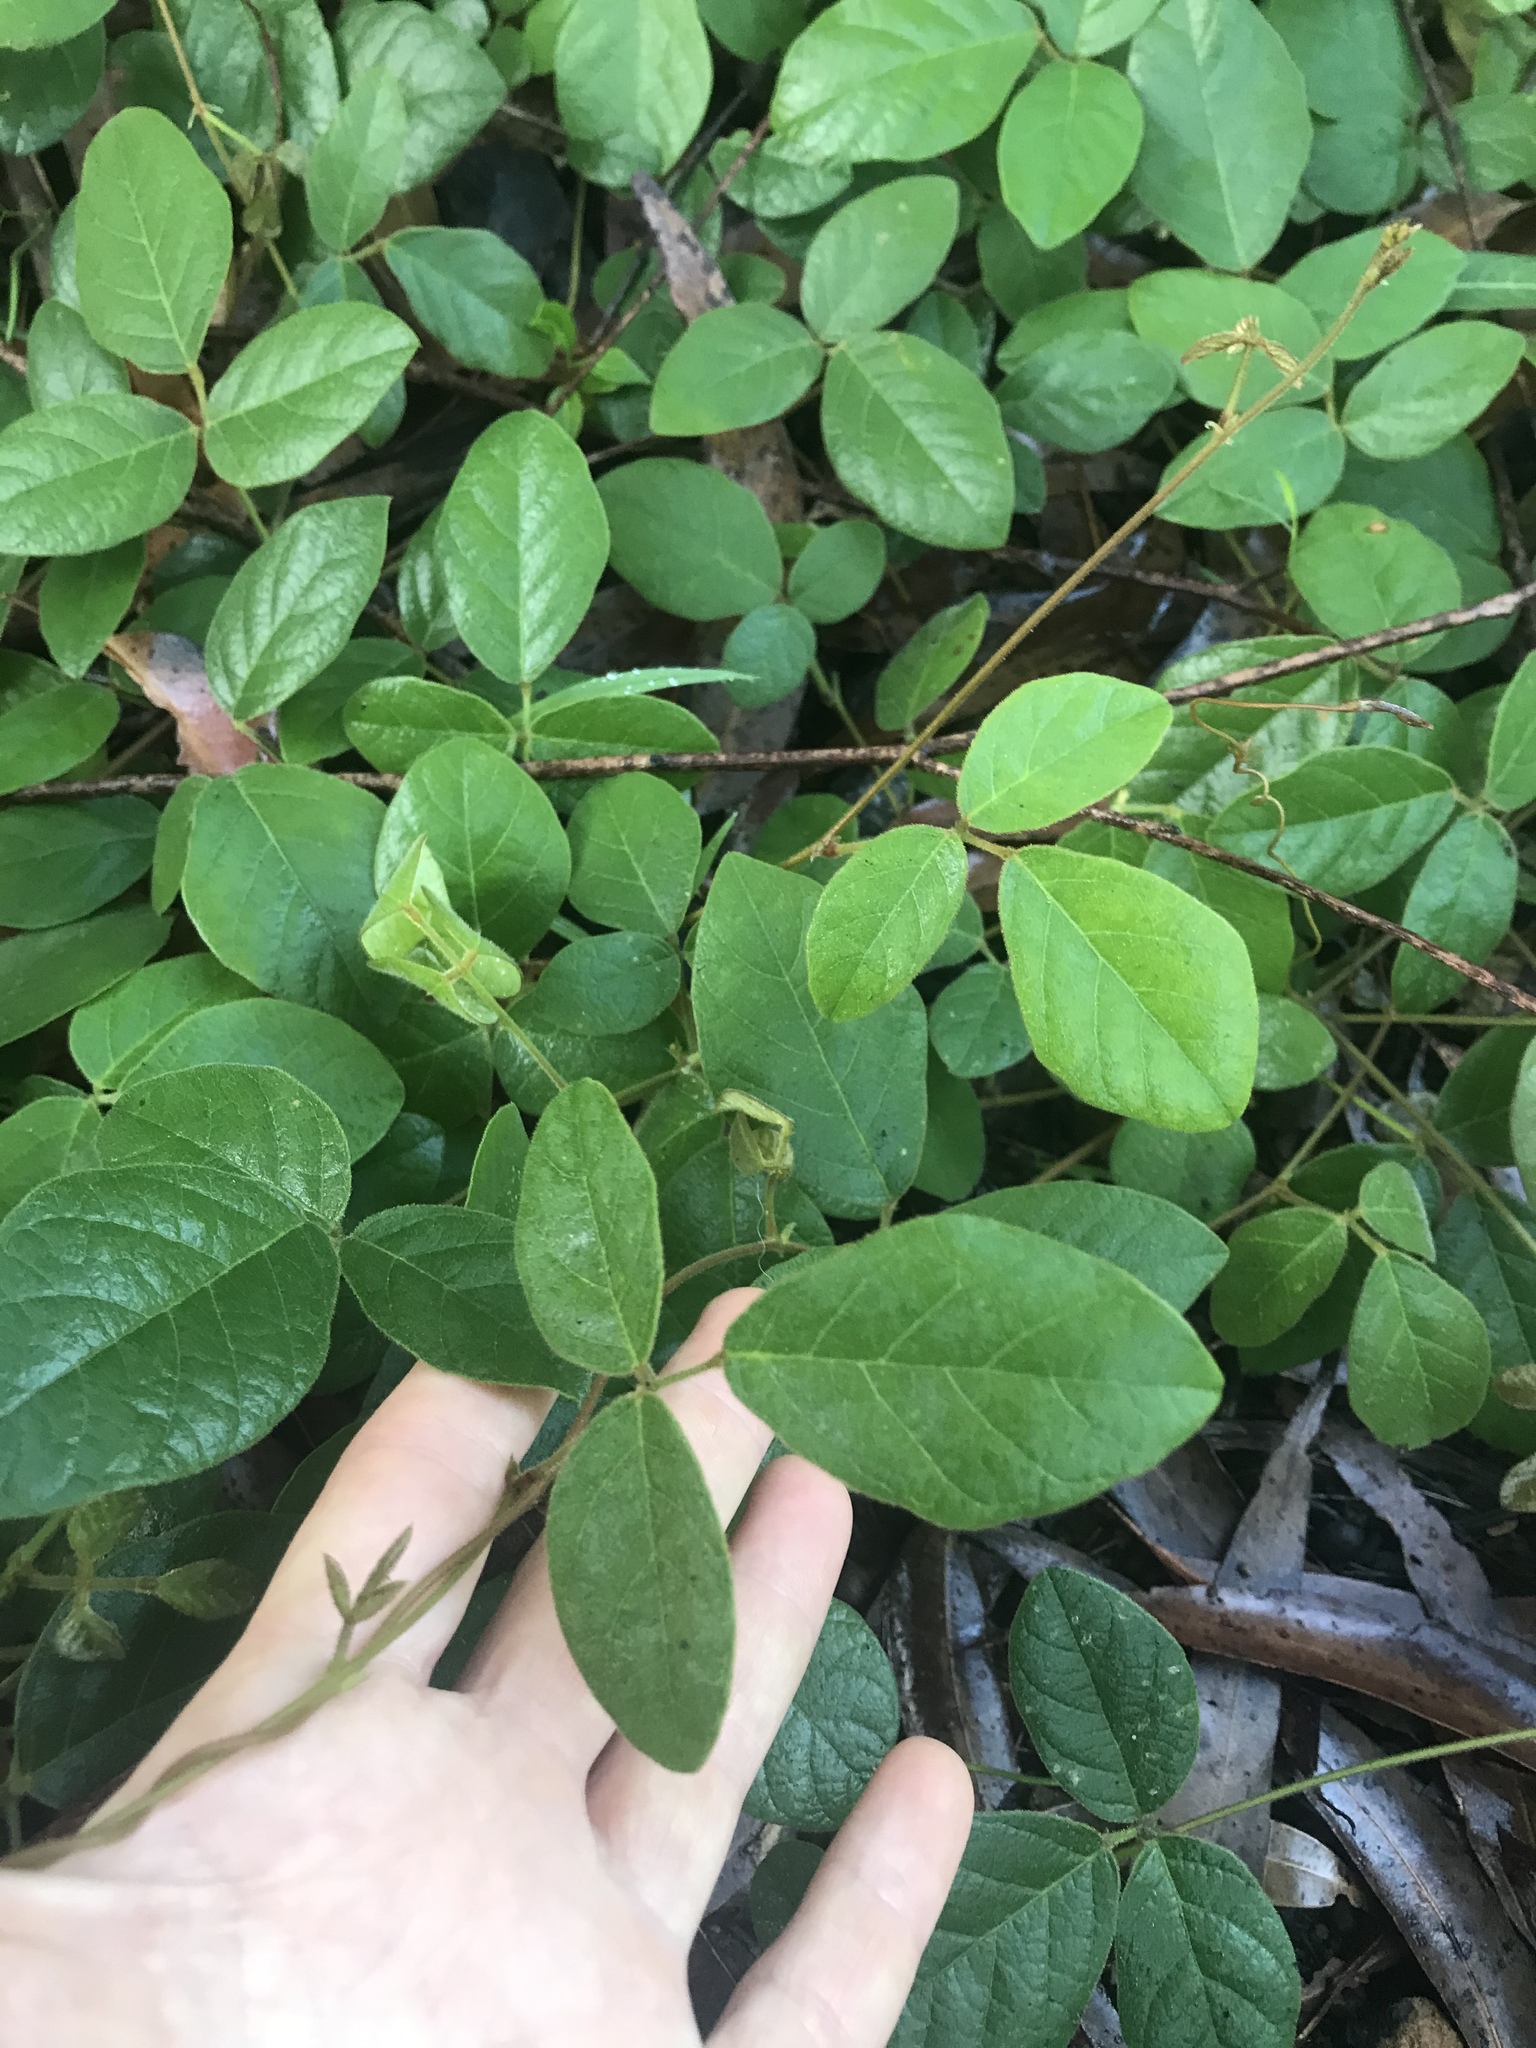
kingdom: Plantae
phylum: Tracheophyta
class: Magnoliopsida
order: Fabales
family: Fabaceae
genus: Kennedia
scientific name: Kennedia rubicunda
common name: Red kennedy-pea
